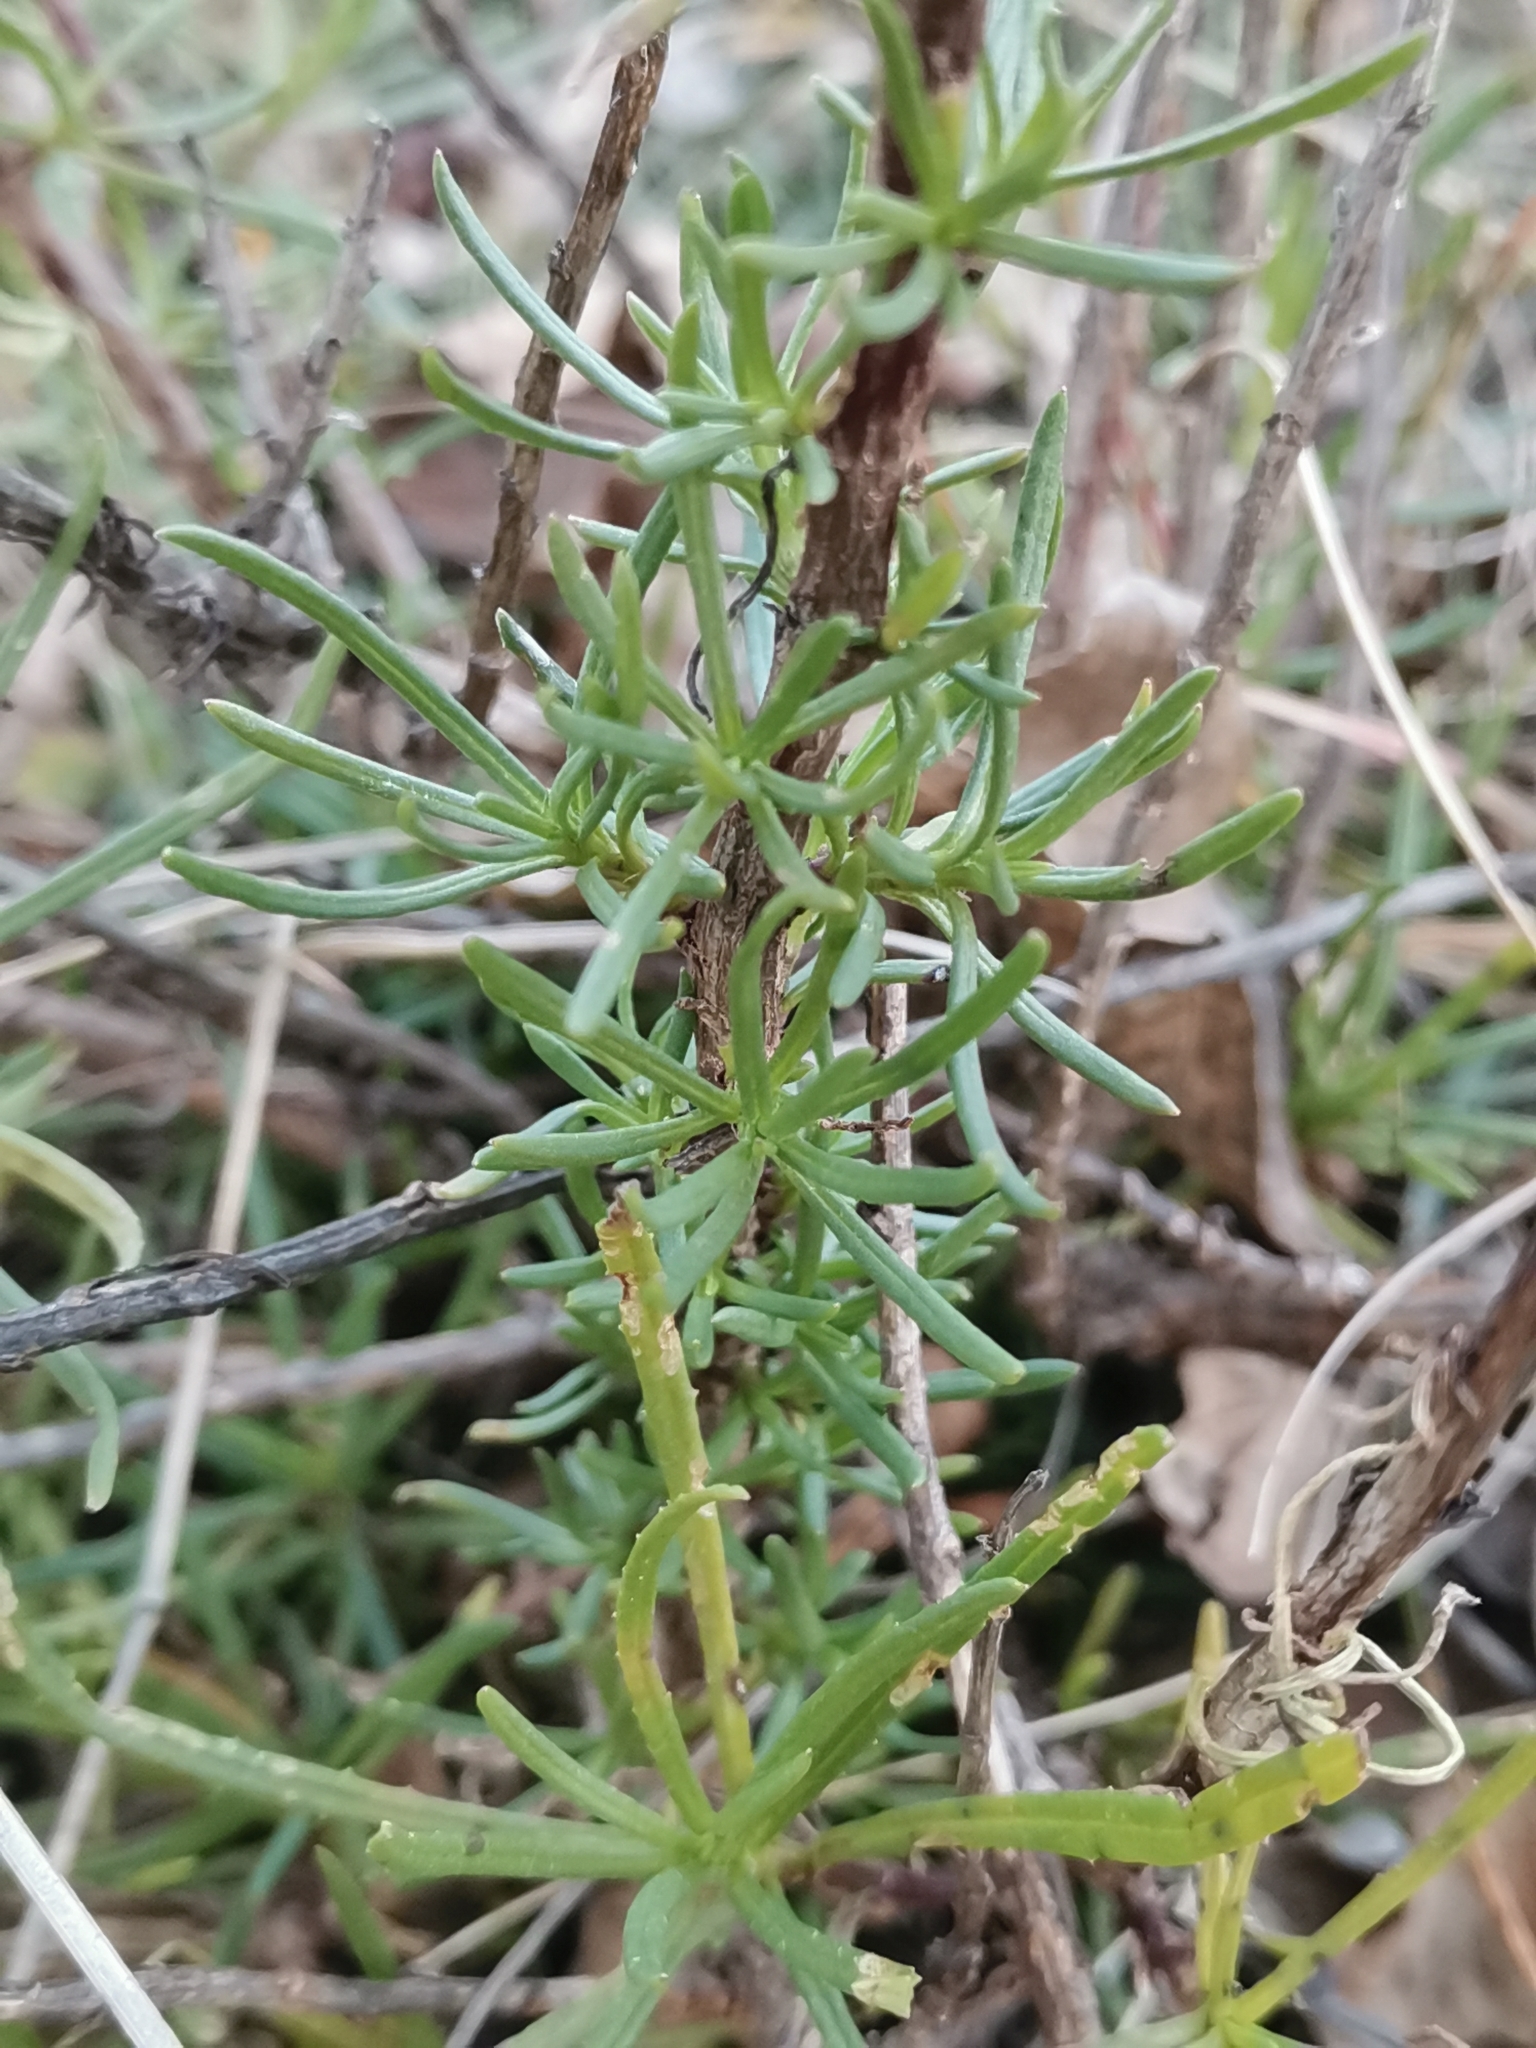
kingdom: Plantae
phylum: Tracheophyta
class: Magnoliopsida
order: Asterales
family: Asteraceae
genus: Senecio
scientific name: Senecio inaequidens
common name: Narrow-leaved ragwort
